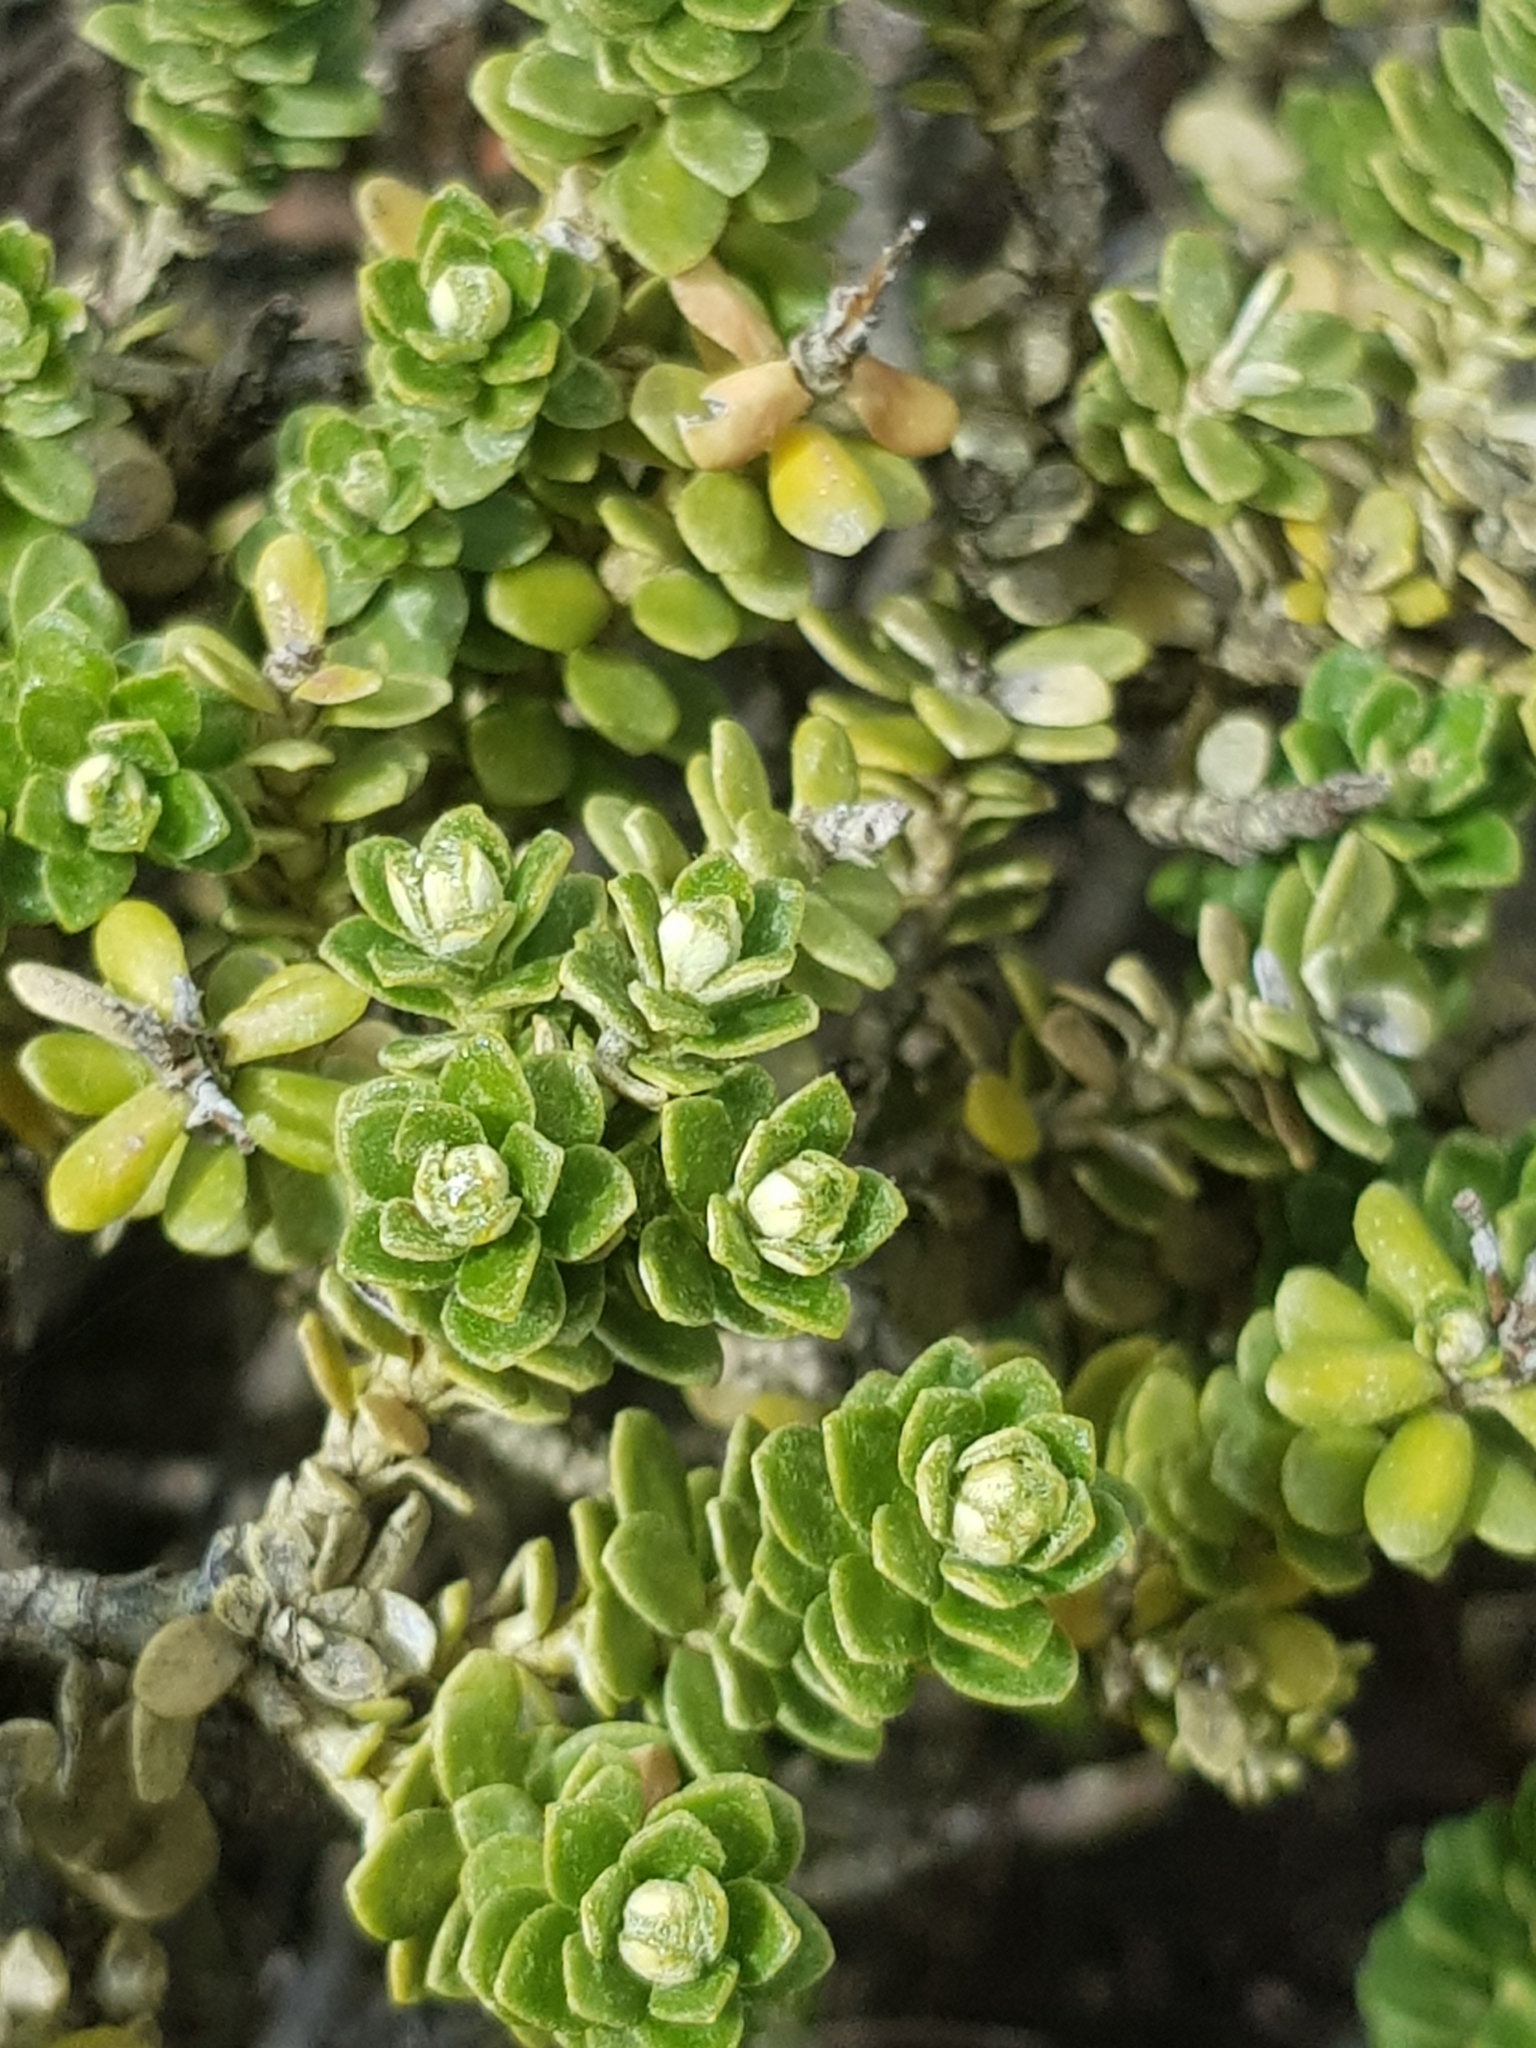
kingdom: Plantae
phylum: Tracheophyta
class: Magnoliopsida
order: Asterales
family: Asteraceae
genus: Ozothamnus
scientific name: Ozothamnus rodwayi
